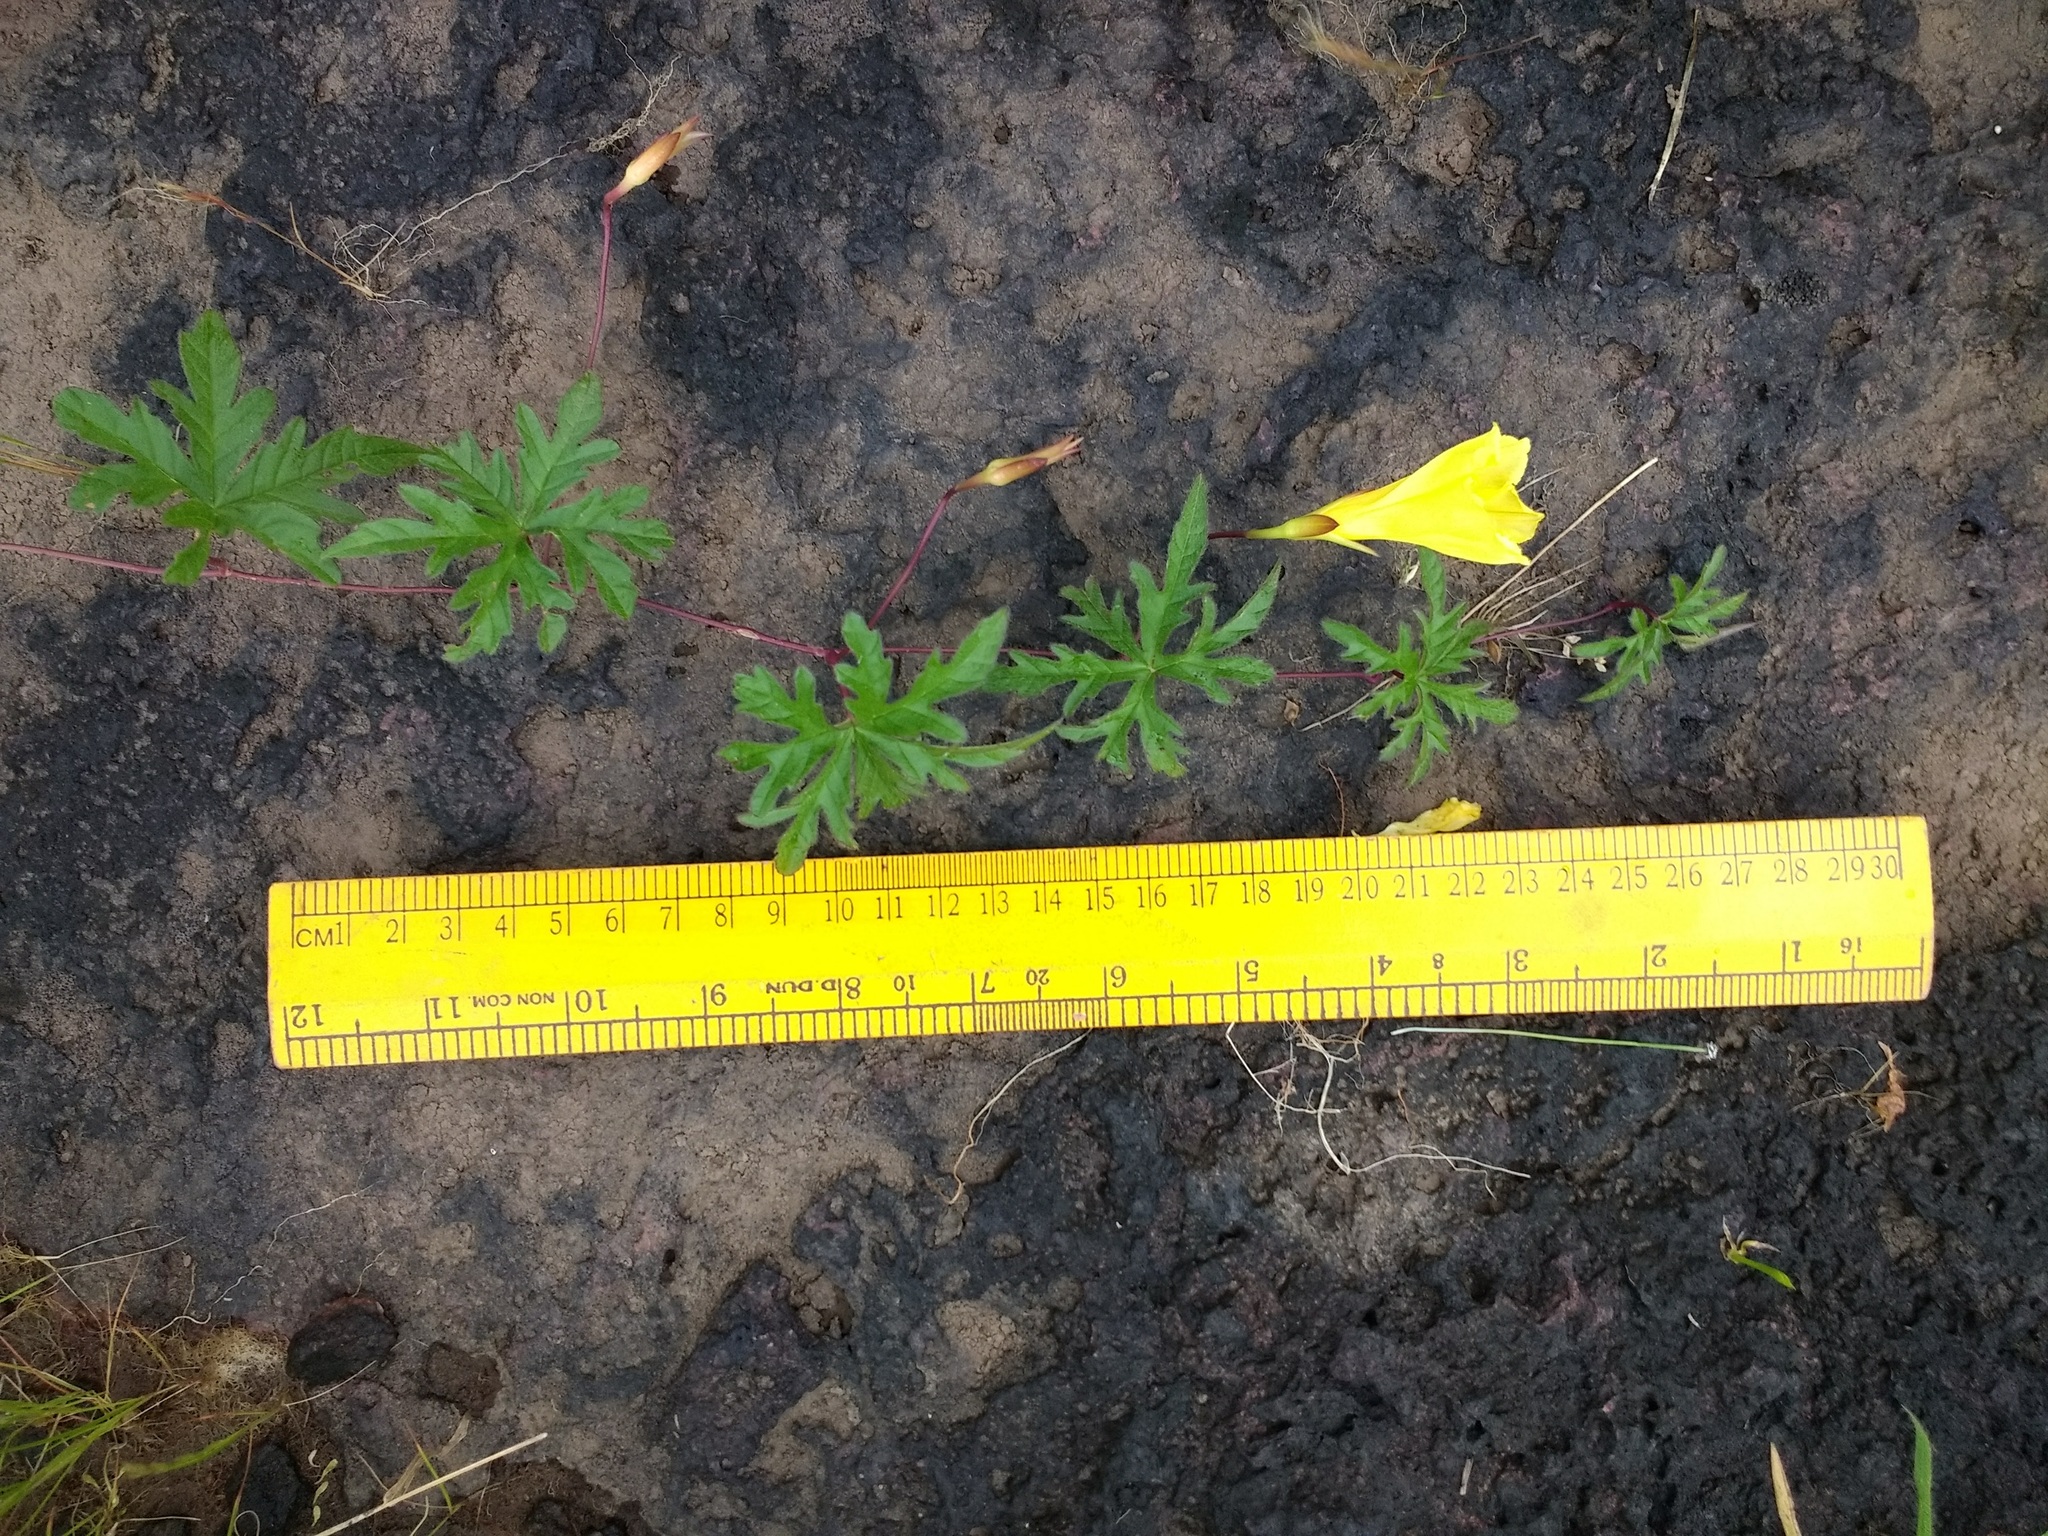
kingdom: Plantae
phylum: Tracheophyta
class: Magnoliopsida
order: Solanales
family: Convolvulaceae
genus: Distimake
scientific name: Distimake rhyncorhizus
